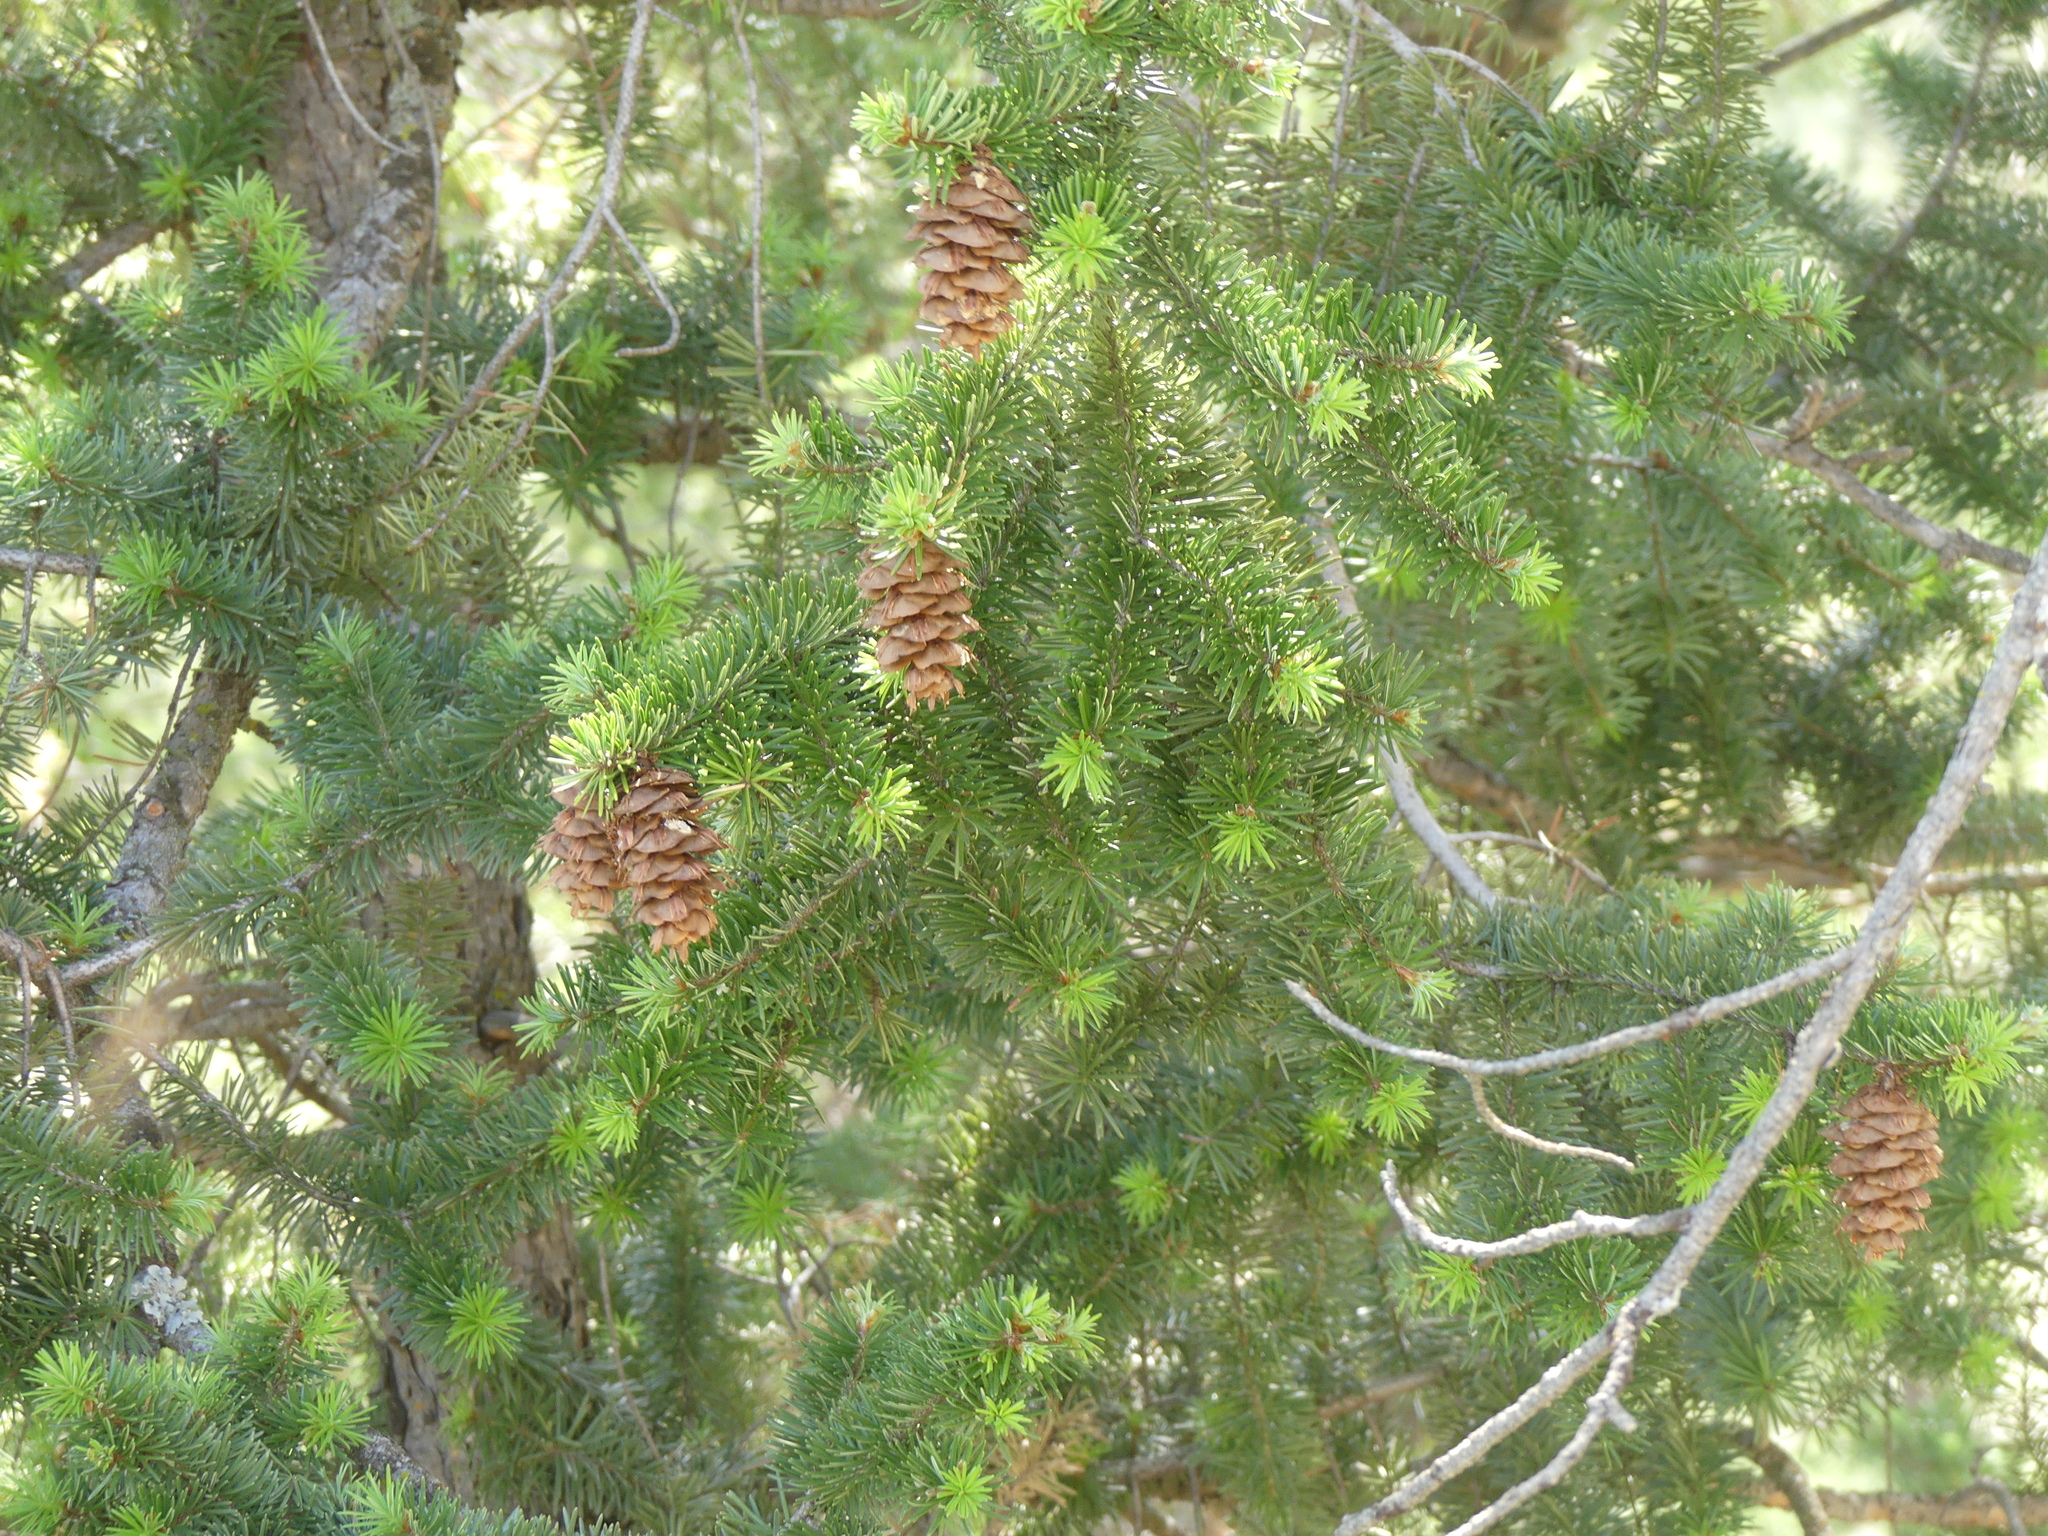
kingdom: Plantae
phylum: Tracheophyta
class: Pinopsida
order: Pinales
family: Pinaceae
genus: Pseudotsuga
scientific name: Pseudotsuga menziesii
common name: Douglas fir
